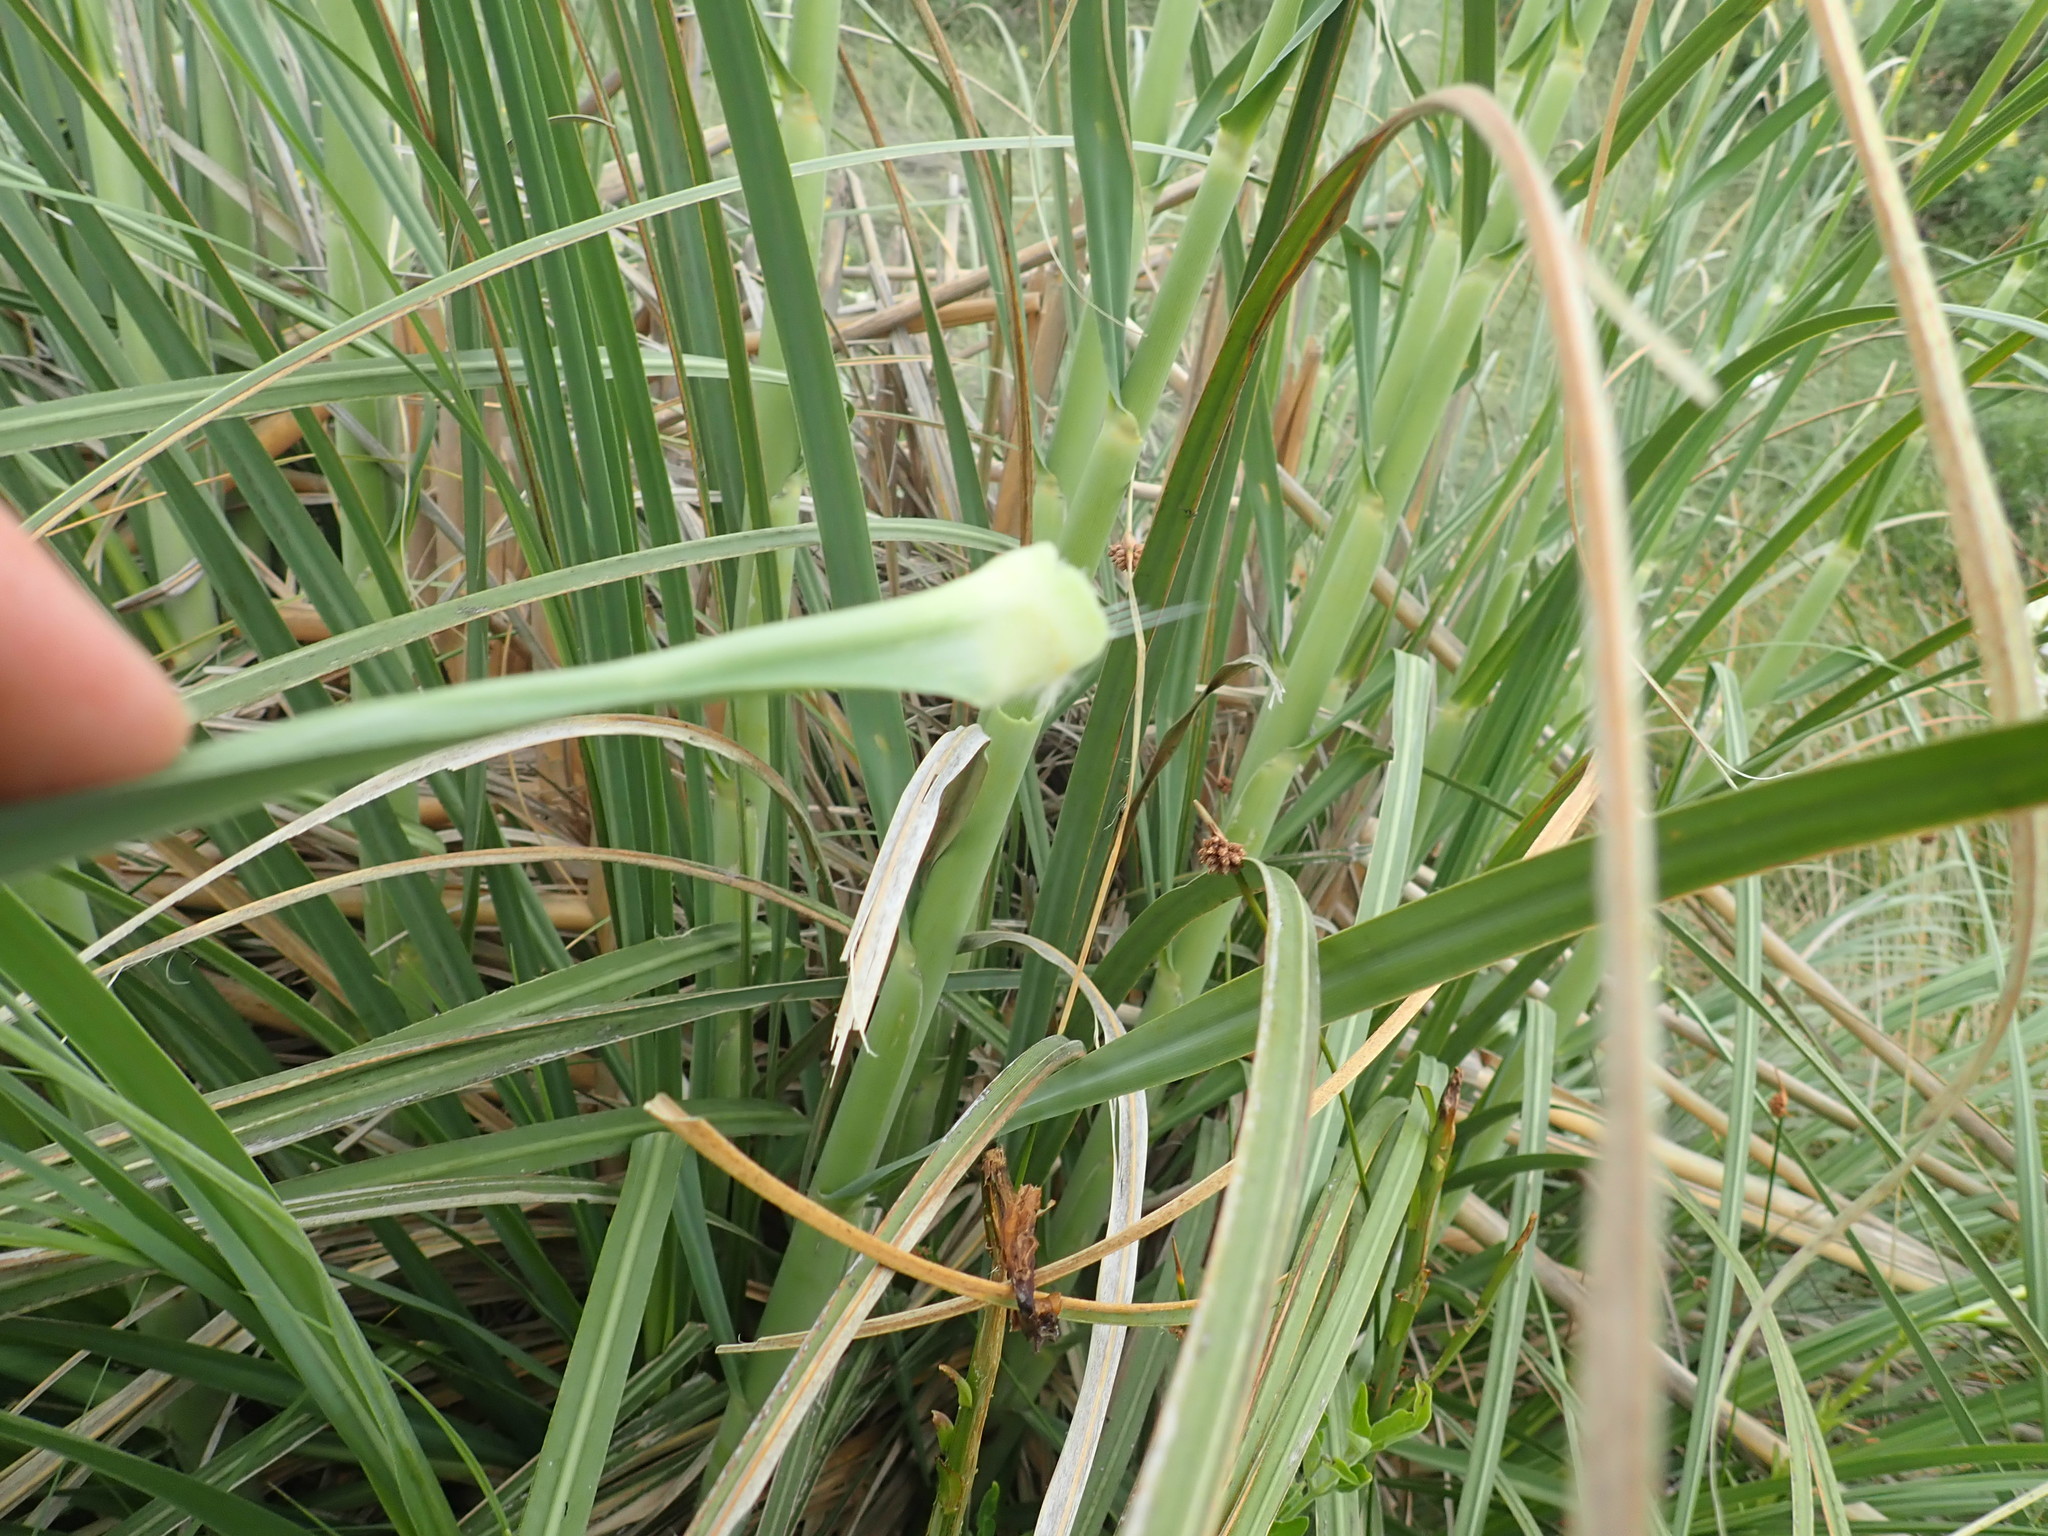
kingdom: Plantae
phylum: Tracheophyta
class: Liliopsida
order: Poales
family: Poaceae
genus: Cortaderia
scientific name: Cortaderia selloana
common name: Uruguayan pampas grass
